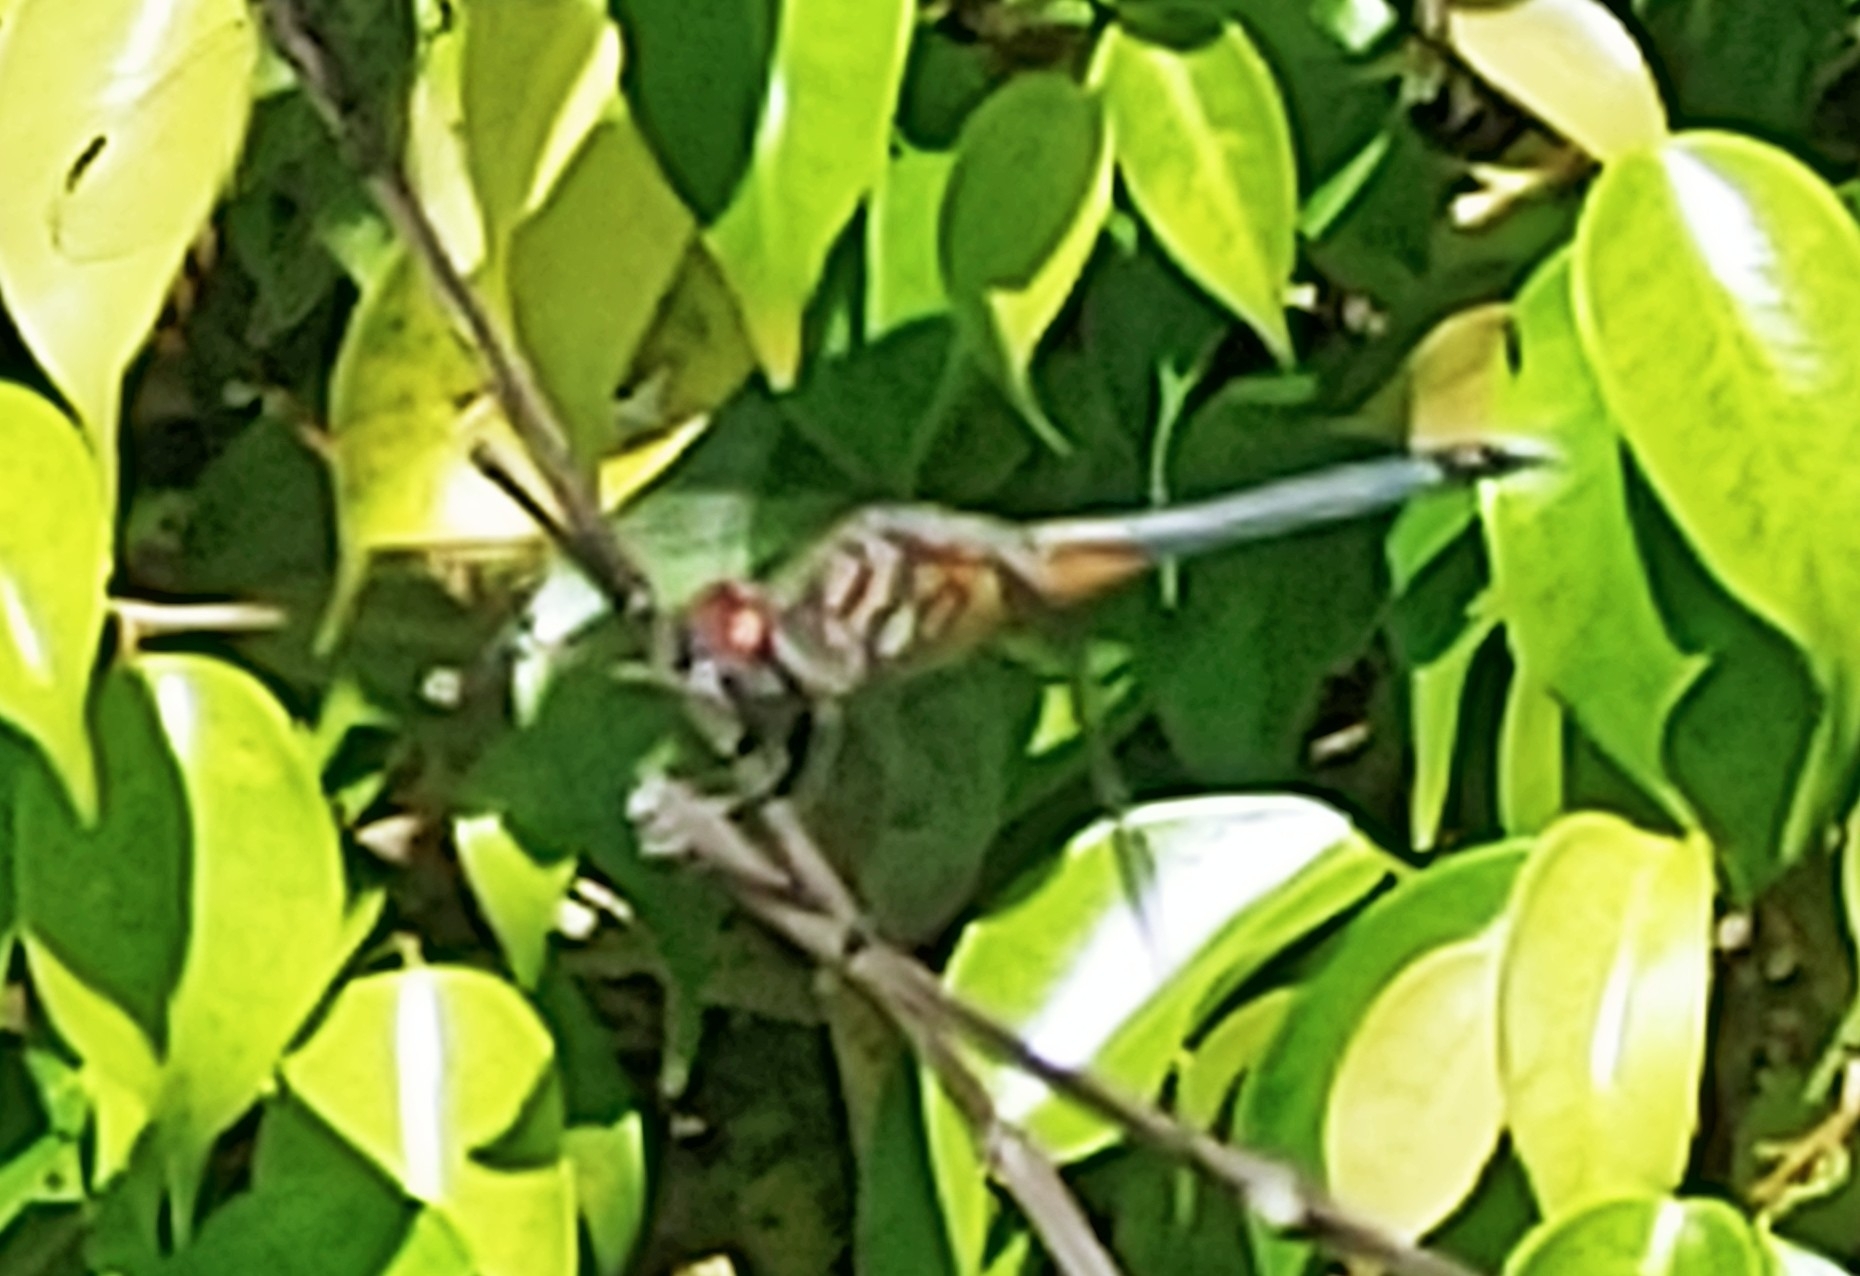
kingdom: Animalia
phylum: Arthropoda
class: Insecta
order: Odonata
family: Libellulidae
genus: Pachydiplax
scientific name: Pachydiplax longipennis
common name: Blue dasher
